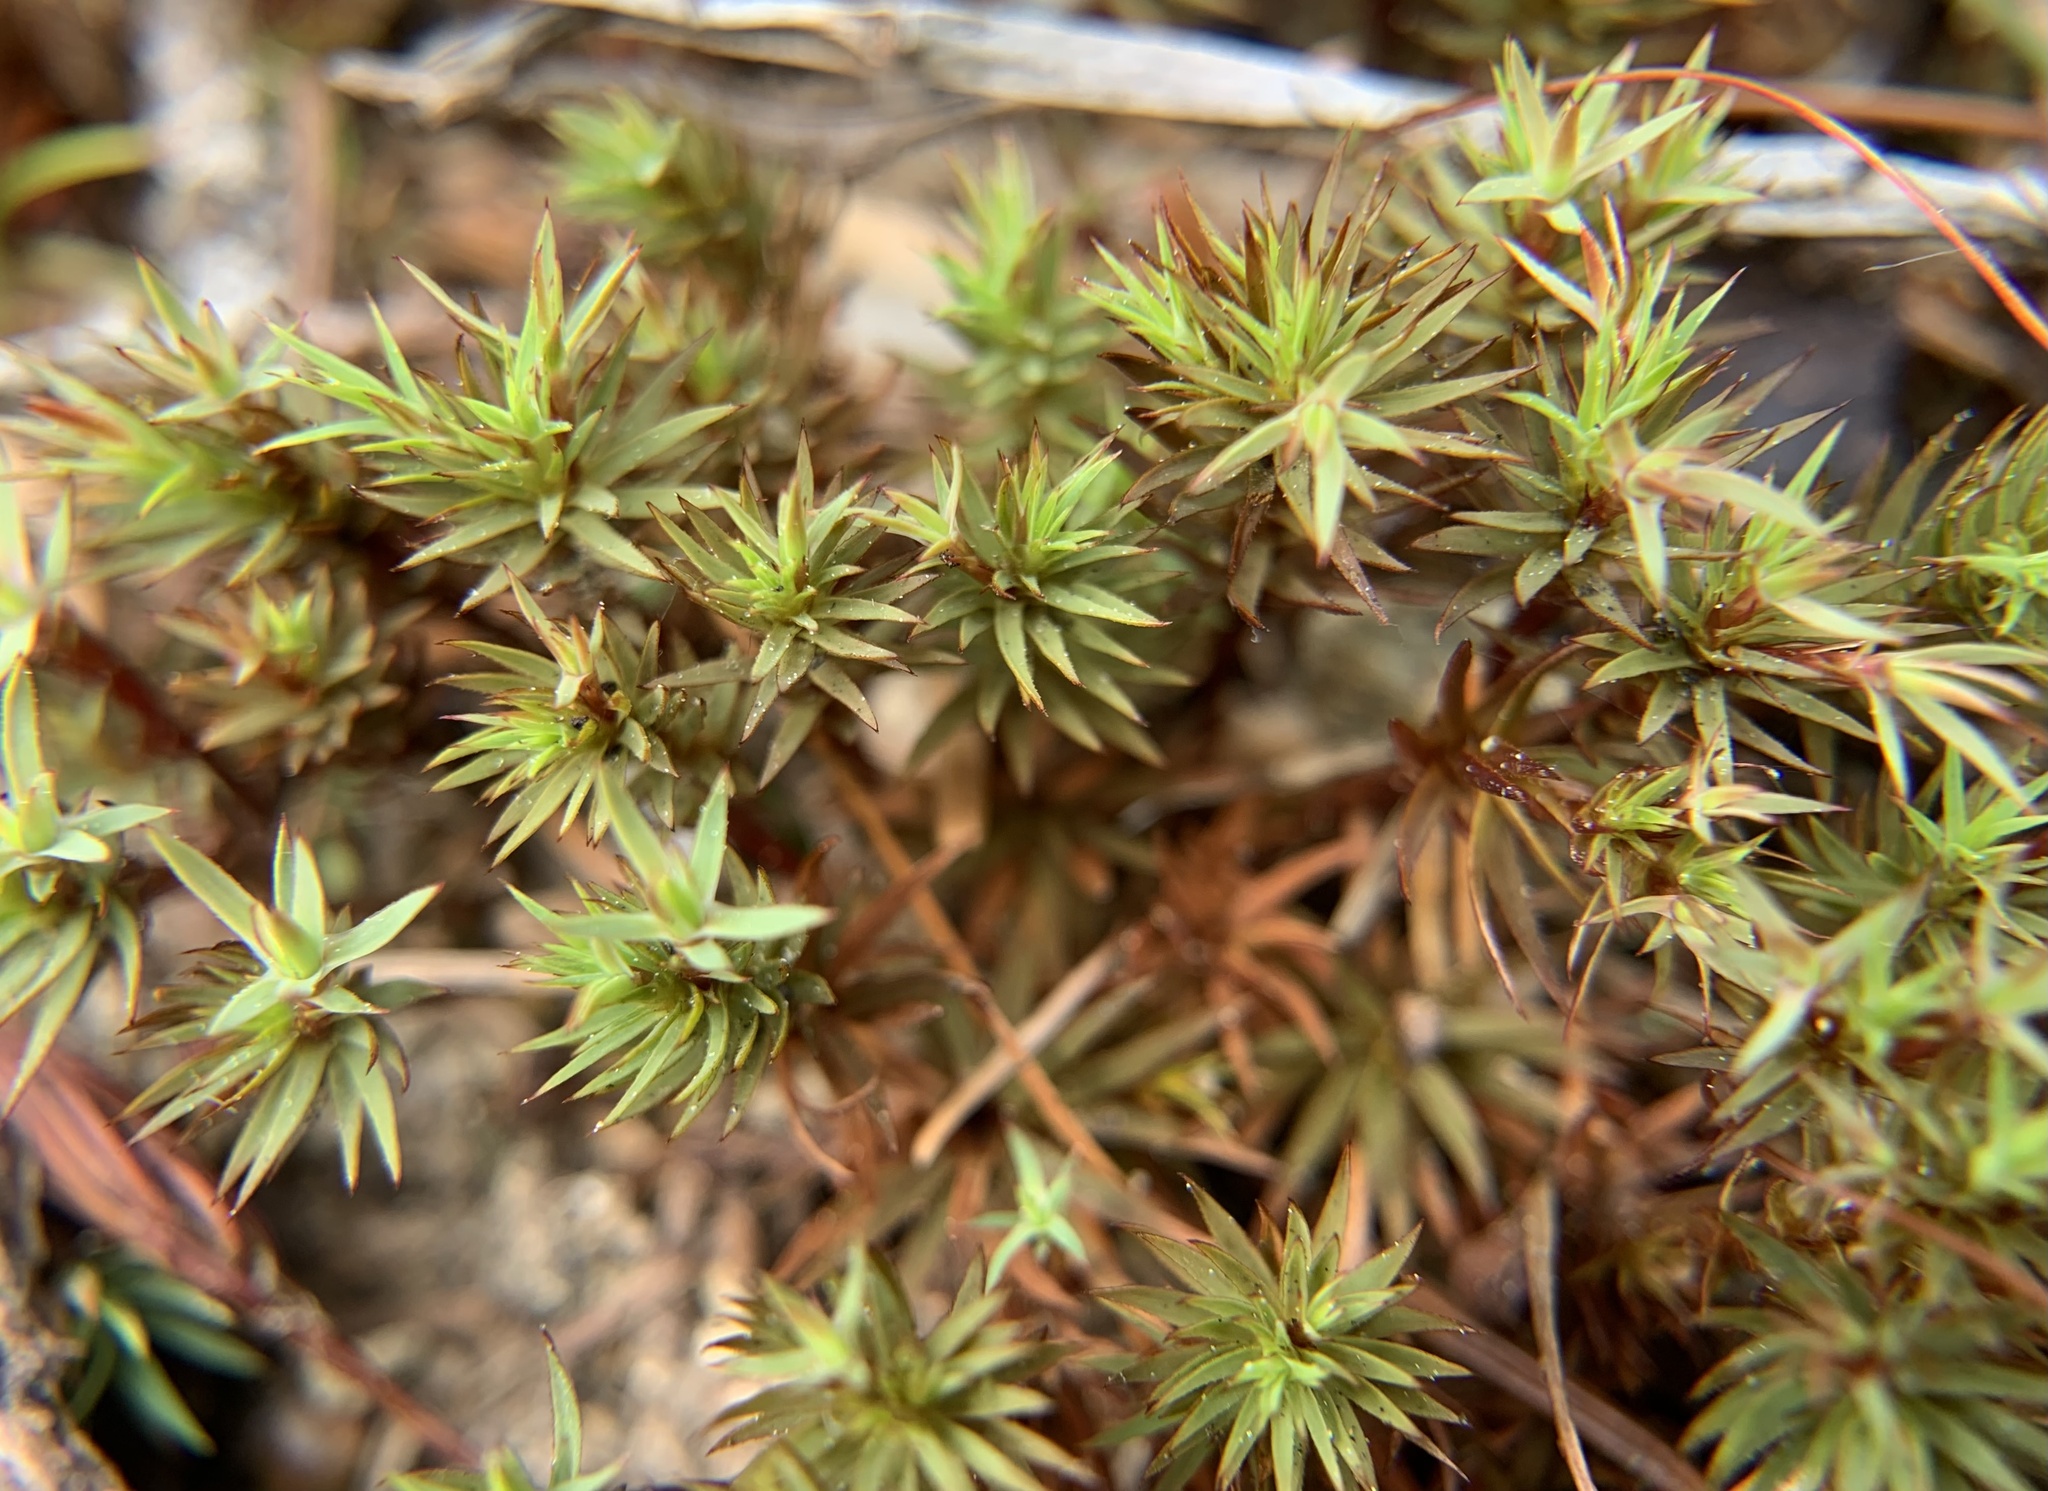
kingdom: Plantae
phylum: Bryophyta
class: Polytrichopsida
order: Polytrichales
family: Polytrichaceae
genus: Pogonatum
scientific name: Pogonatum urnigerum
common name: Urn hair moss
